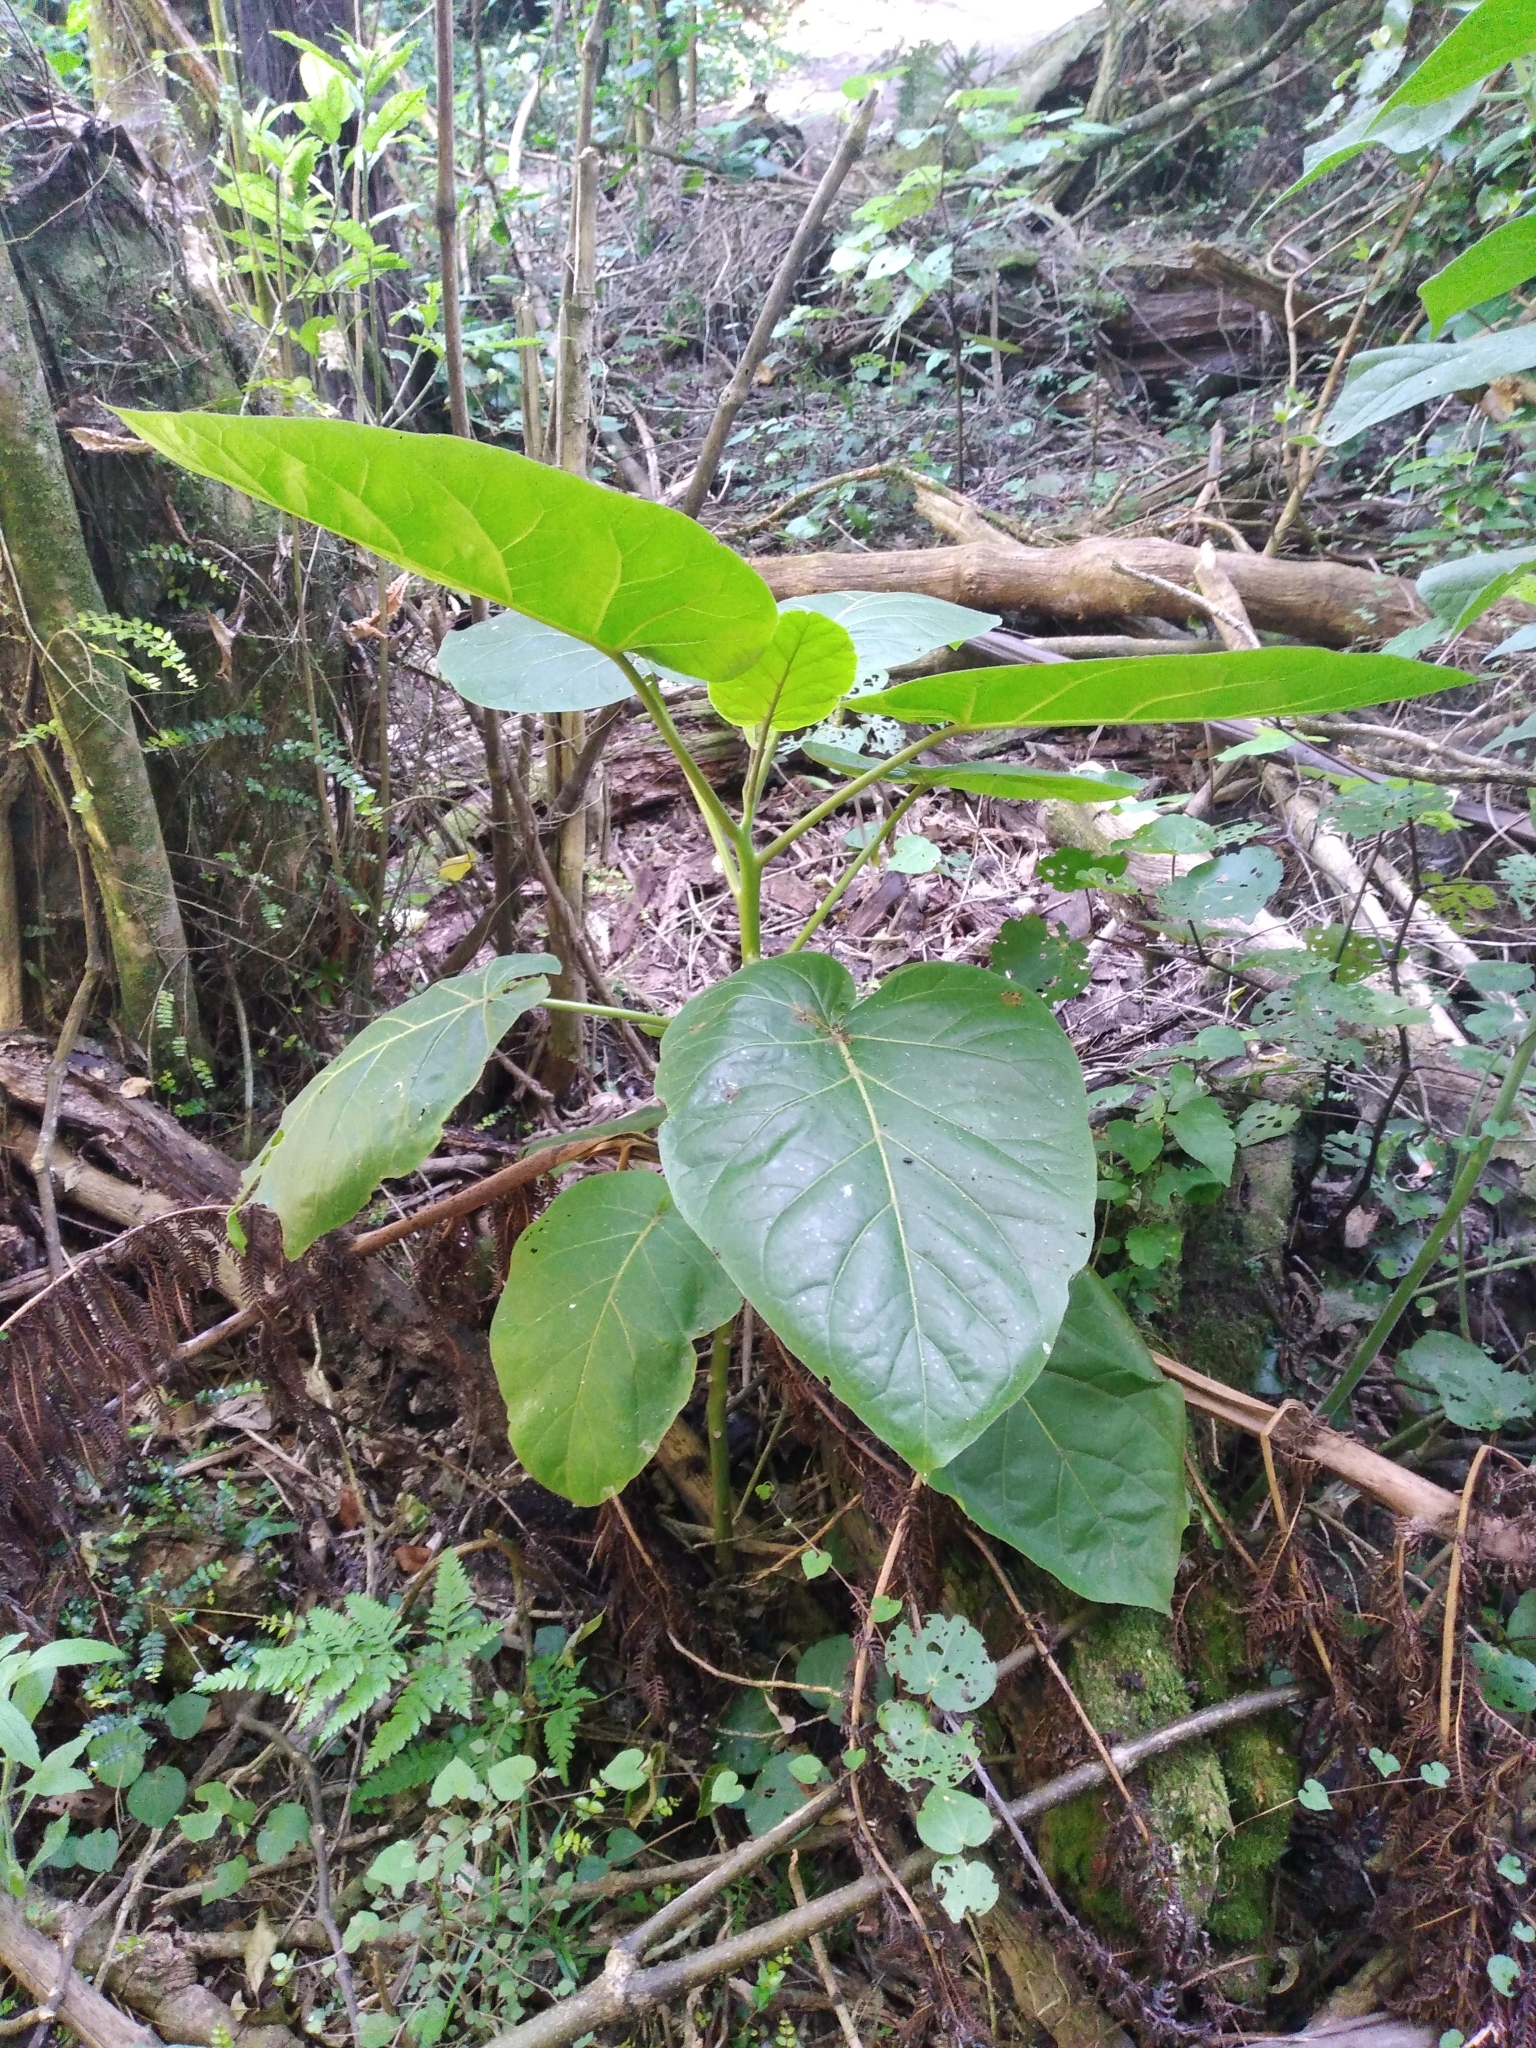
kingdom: Plantae
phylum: Tracheophyta
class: Magnoliopsida
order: Solanales
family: Solanaceae
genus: Solanum
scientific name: Solanum betaceum
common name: Tamarillo
